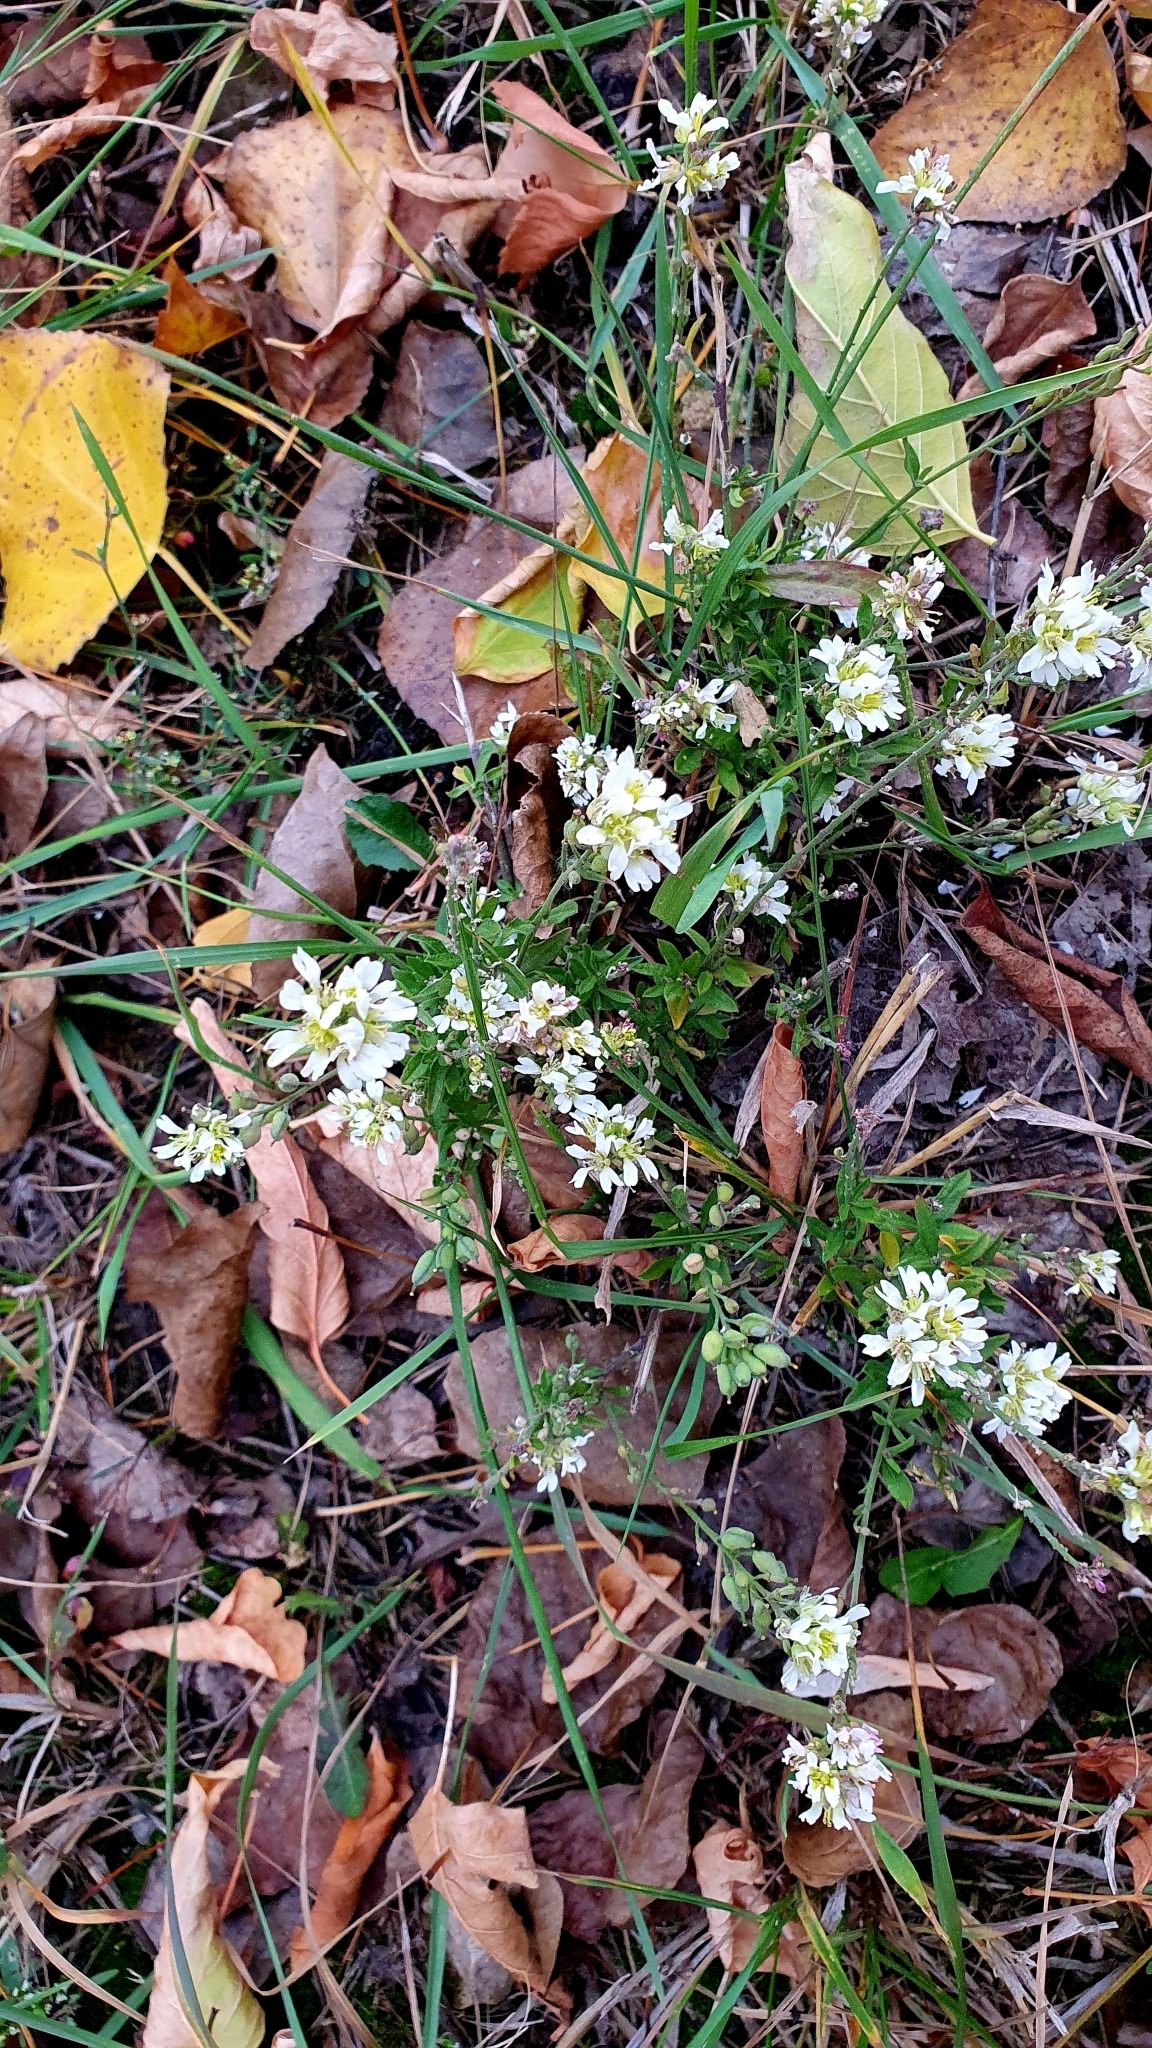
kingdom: Plantae
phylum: Tracheophyta
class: Magnoliopsida
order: Brassicales
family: Brassicaceae
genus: Berteroa
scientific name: Berteroa incana
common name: Hoary alison
